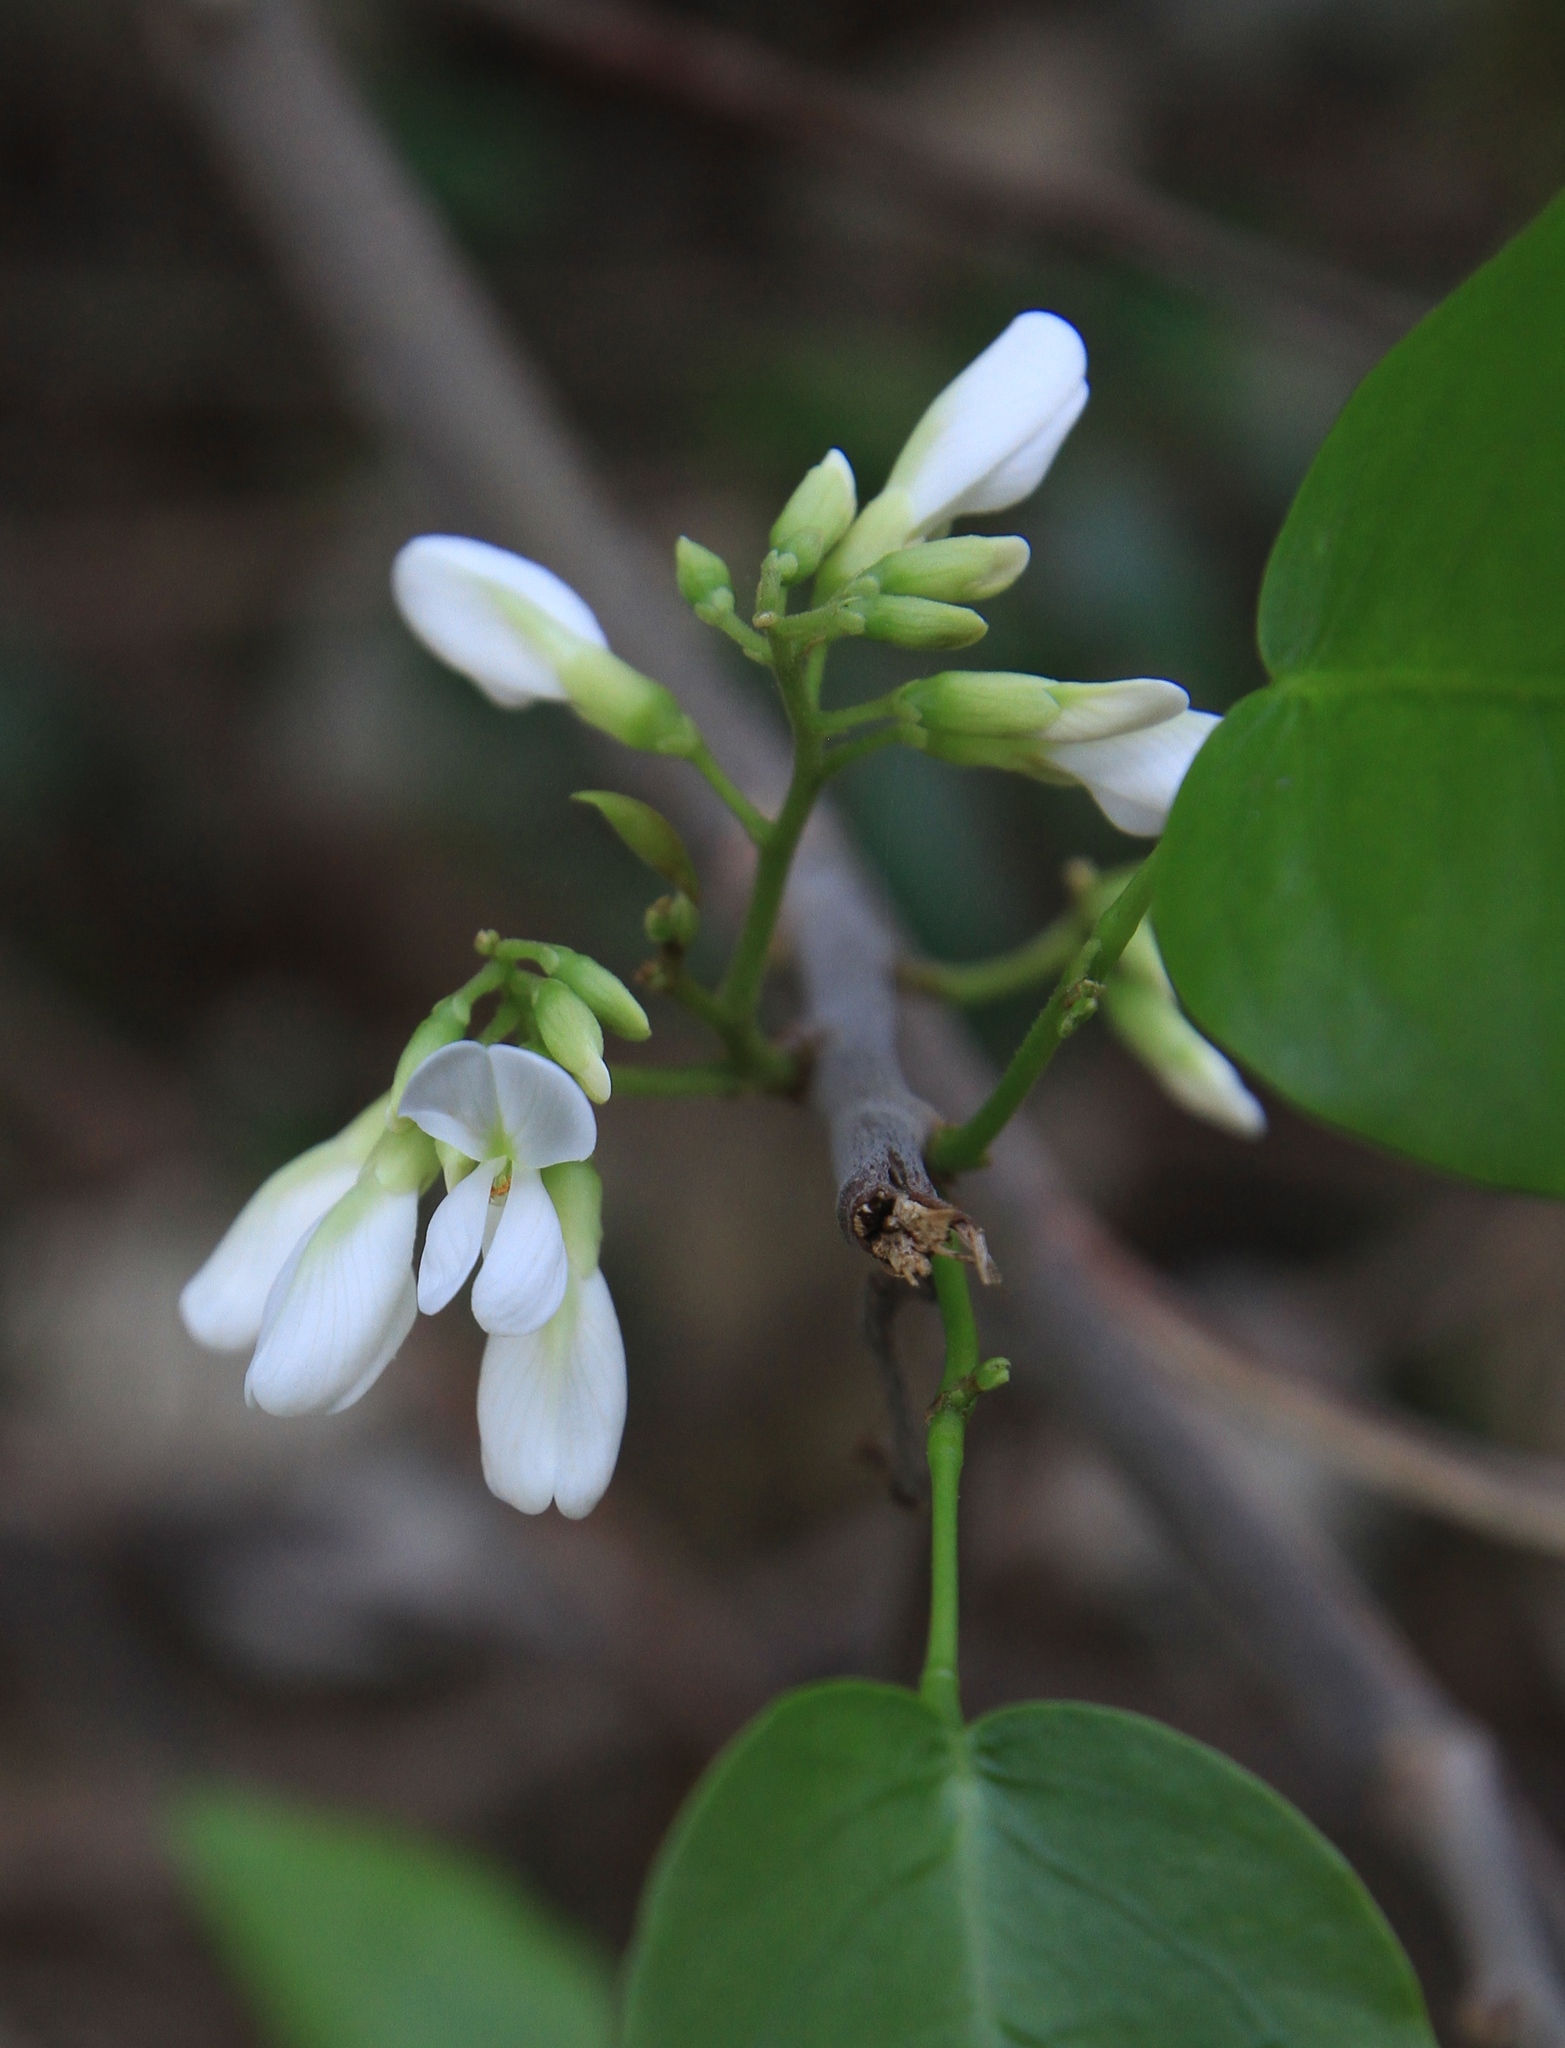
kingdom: Plantae
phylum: Tracheophyta
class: Magnoliopsida
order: Fabales
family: Fabaceae
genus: Dalbergia
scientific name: Dalbergia brownei
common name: Brown's indian rosewood
